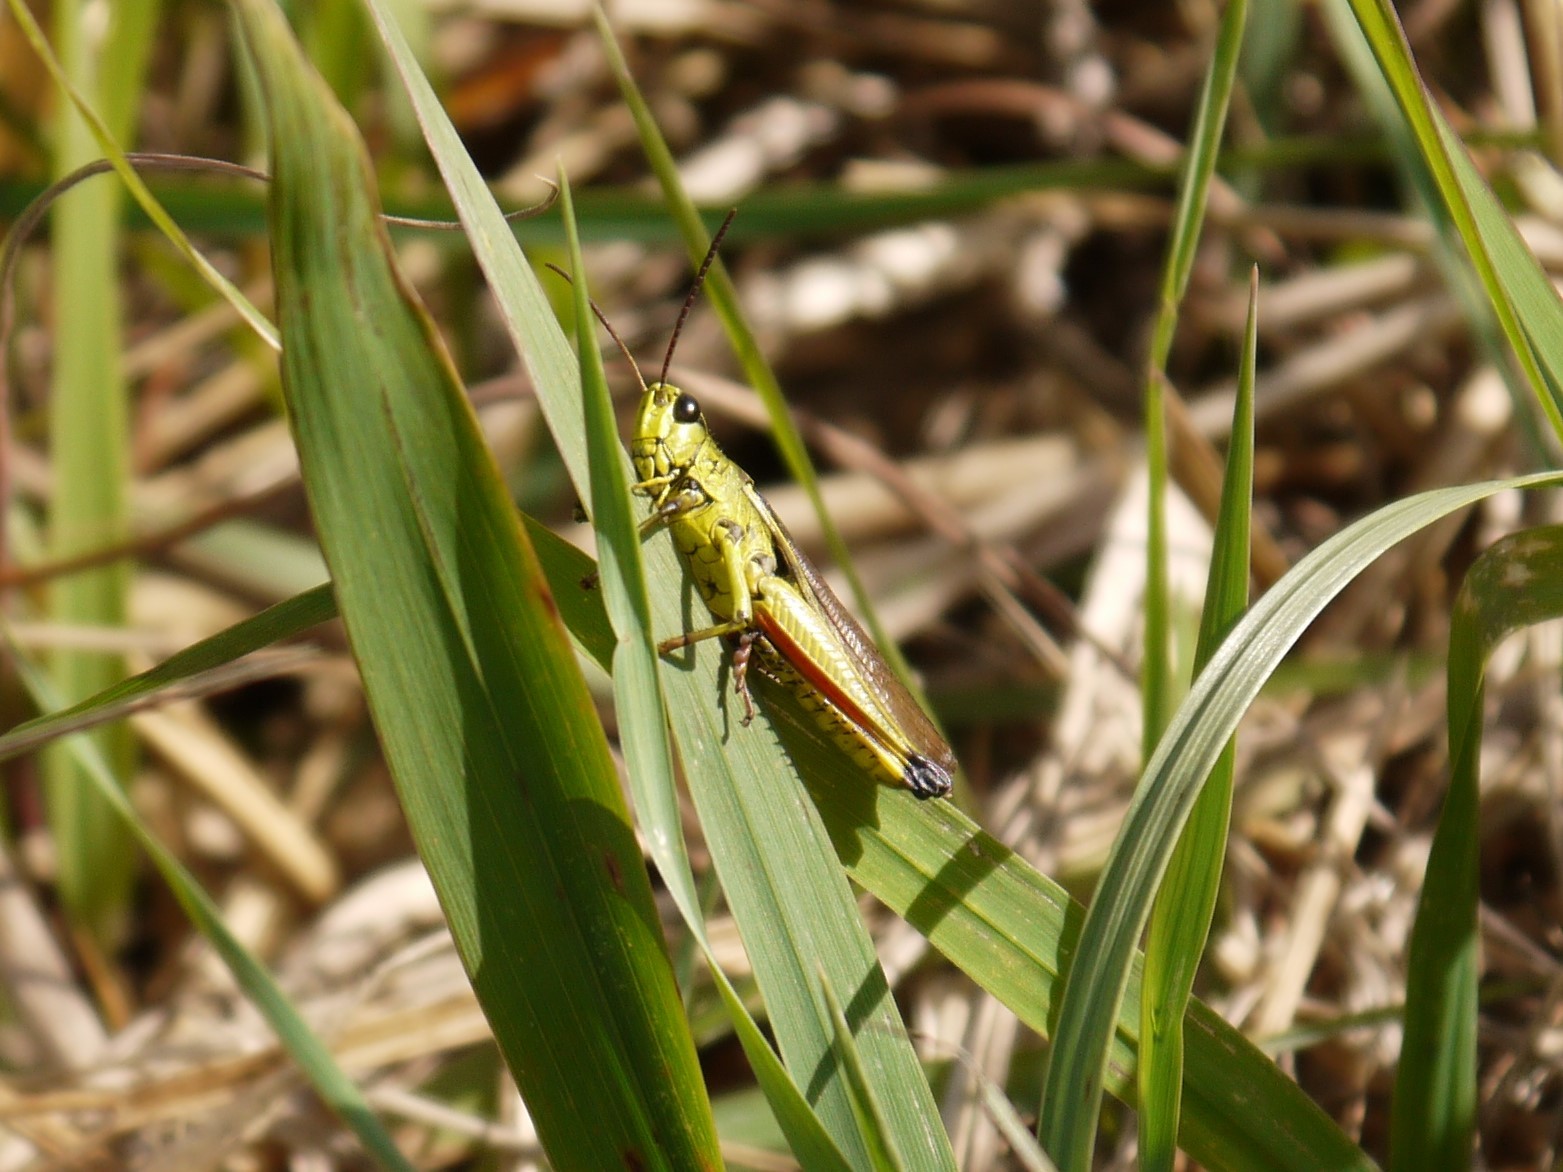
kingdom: Animalia
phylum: Arthropoda
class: Insecta
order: Orthoptera
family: Acrididae
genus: Stethophyma
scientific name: Stethophyma grossum
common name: Large marsh grasshopper
